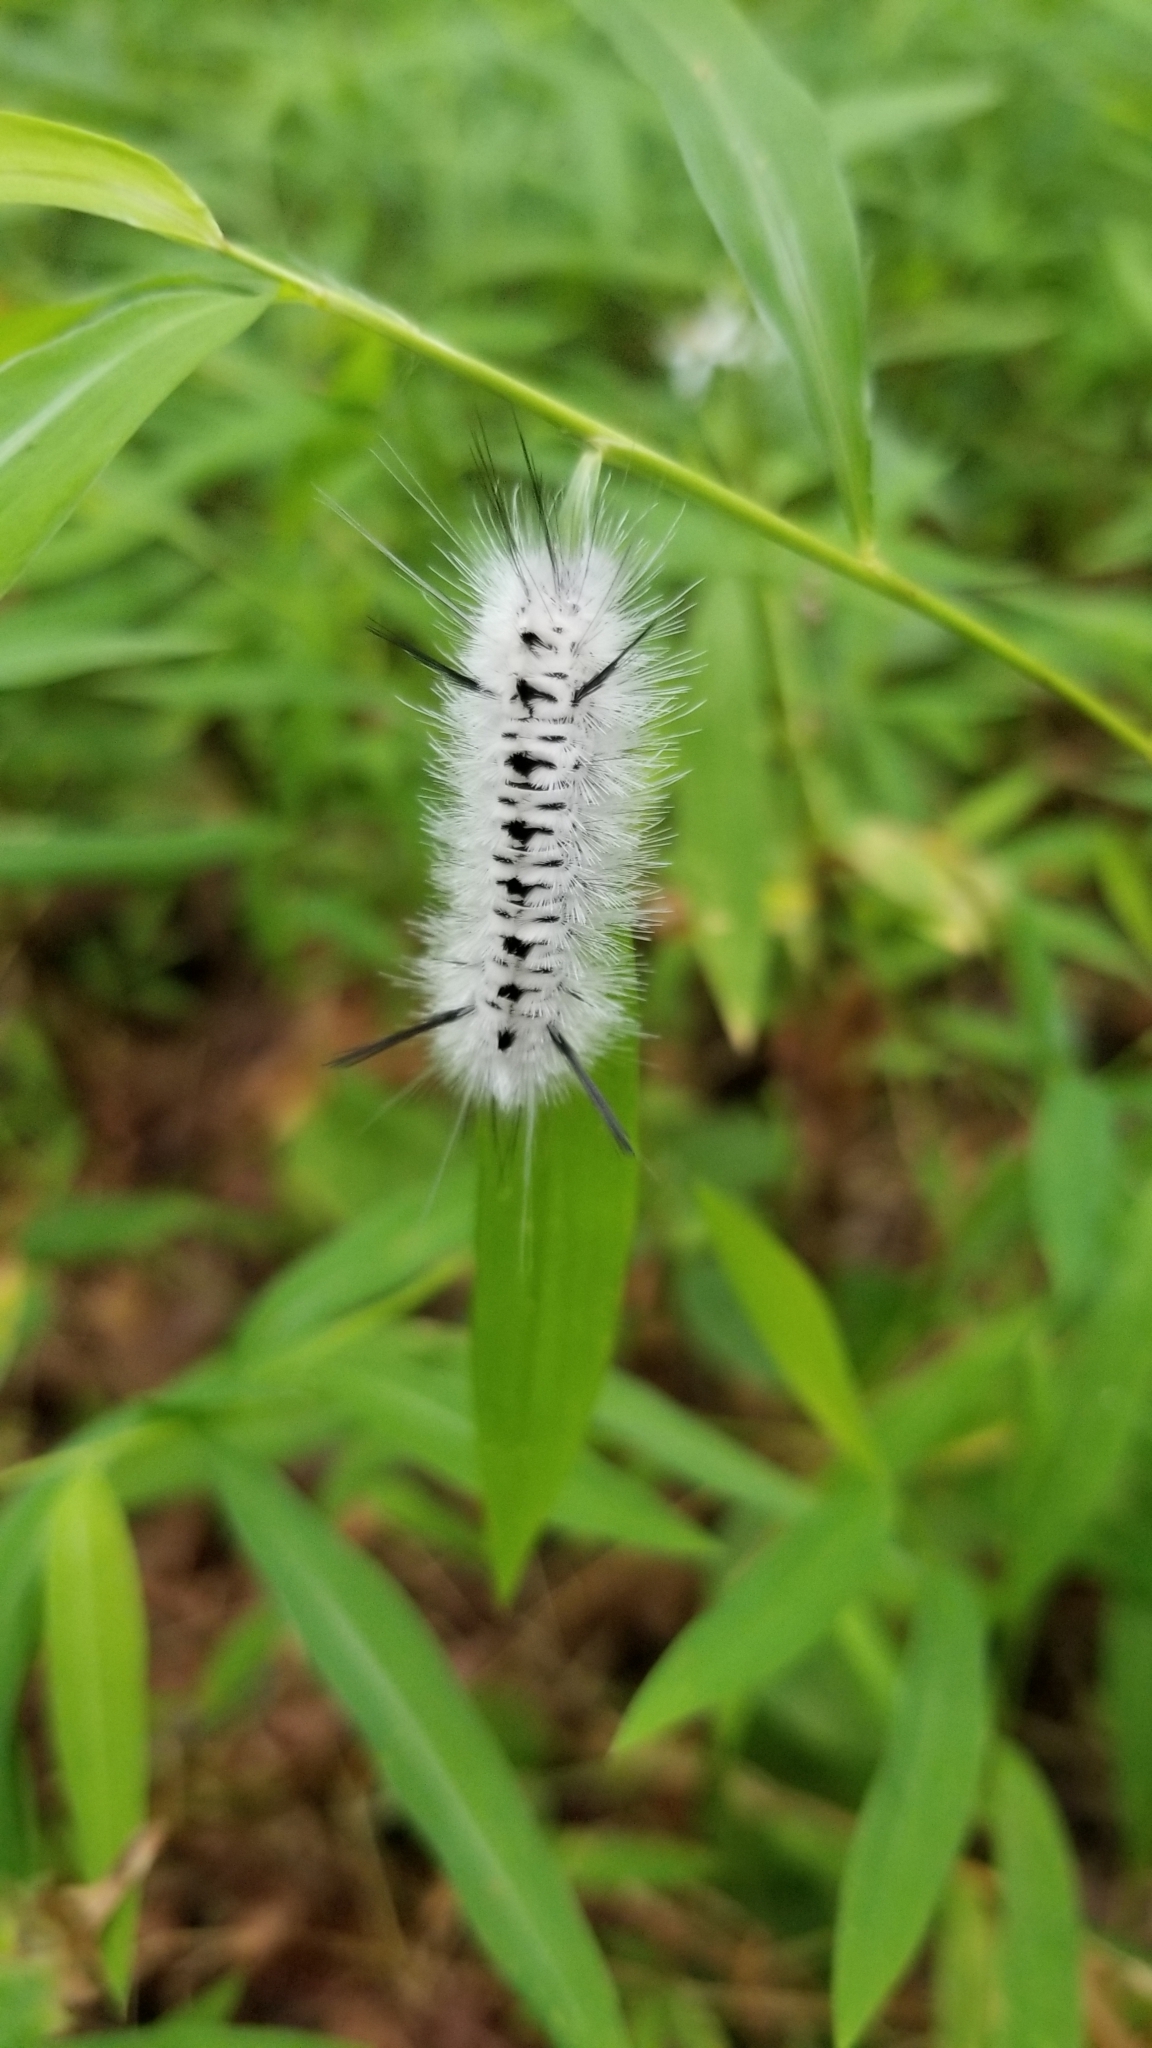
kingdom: Animalia
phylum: Arthropoda
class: Insecta
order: Lepidoptera
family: Erebidae
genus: Lophocampa
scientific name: Lophocampa caryae
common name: Hickory tussock moth
